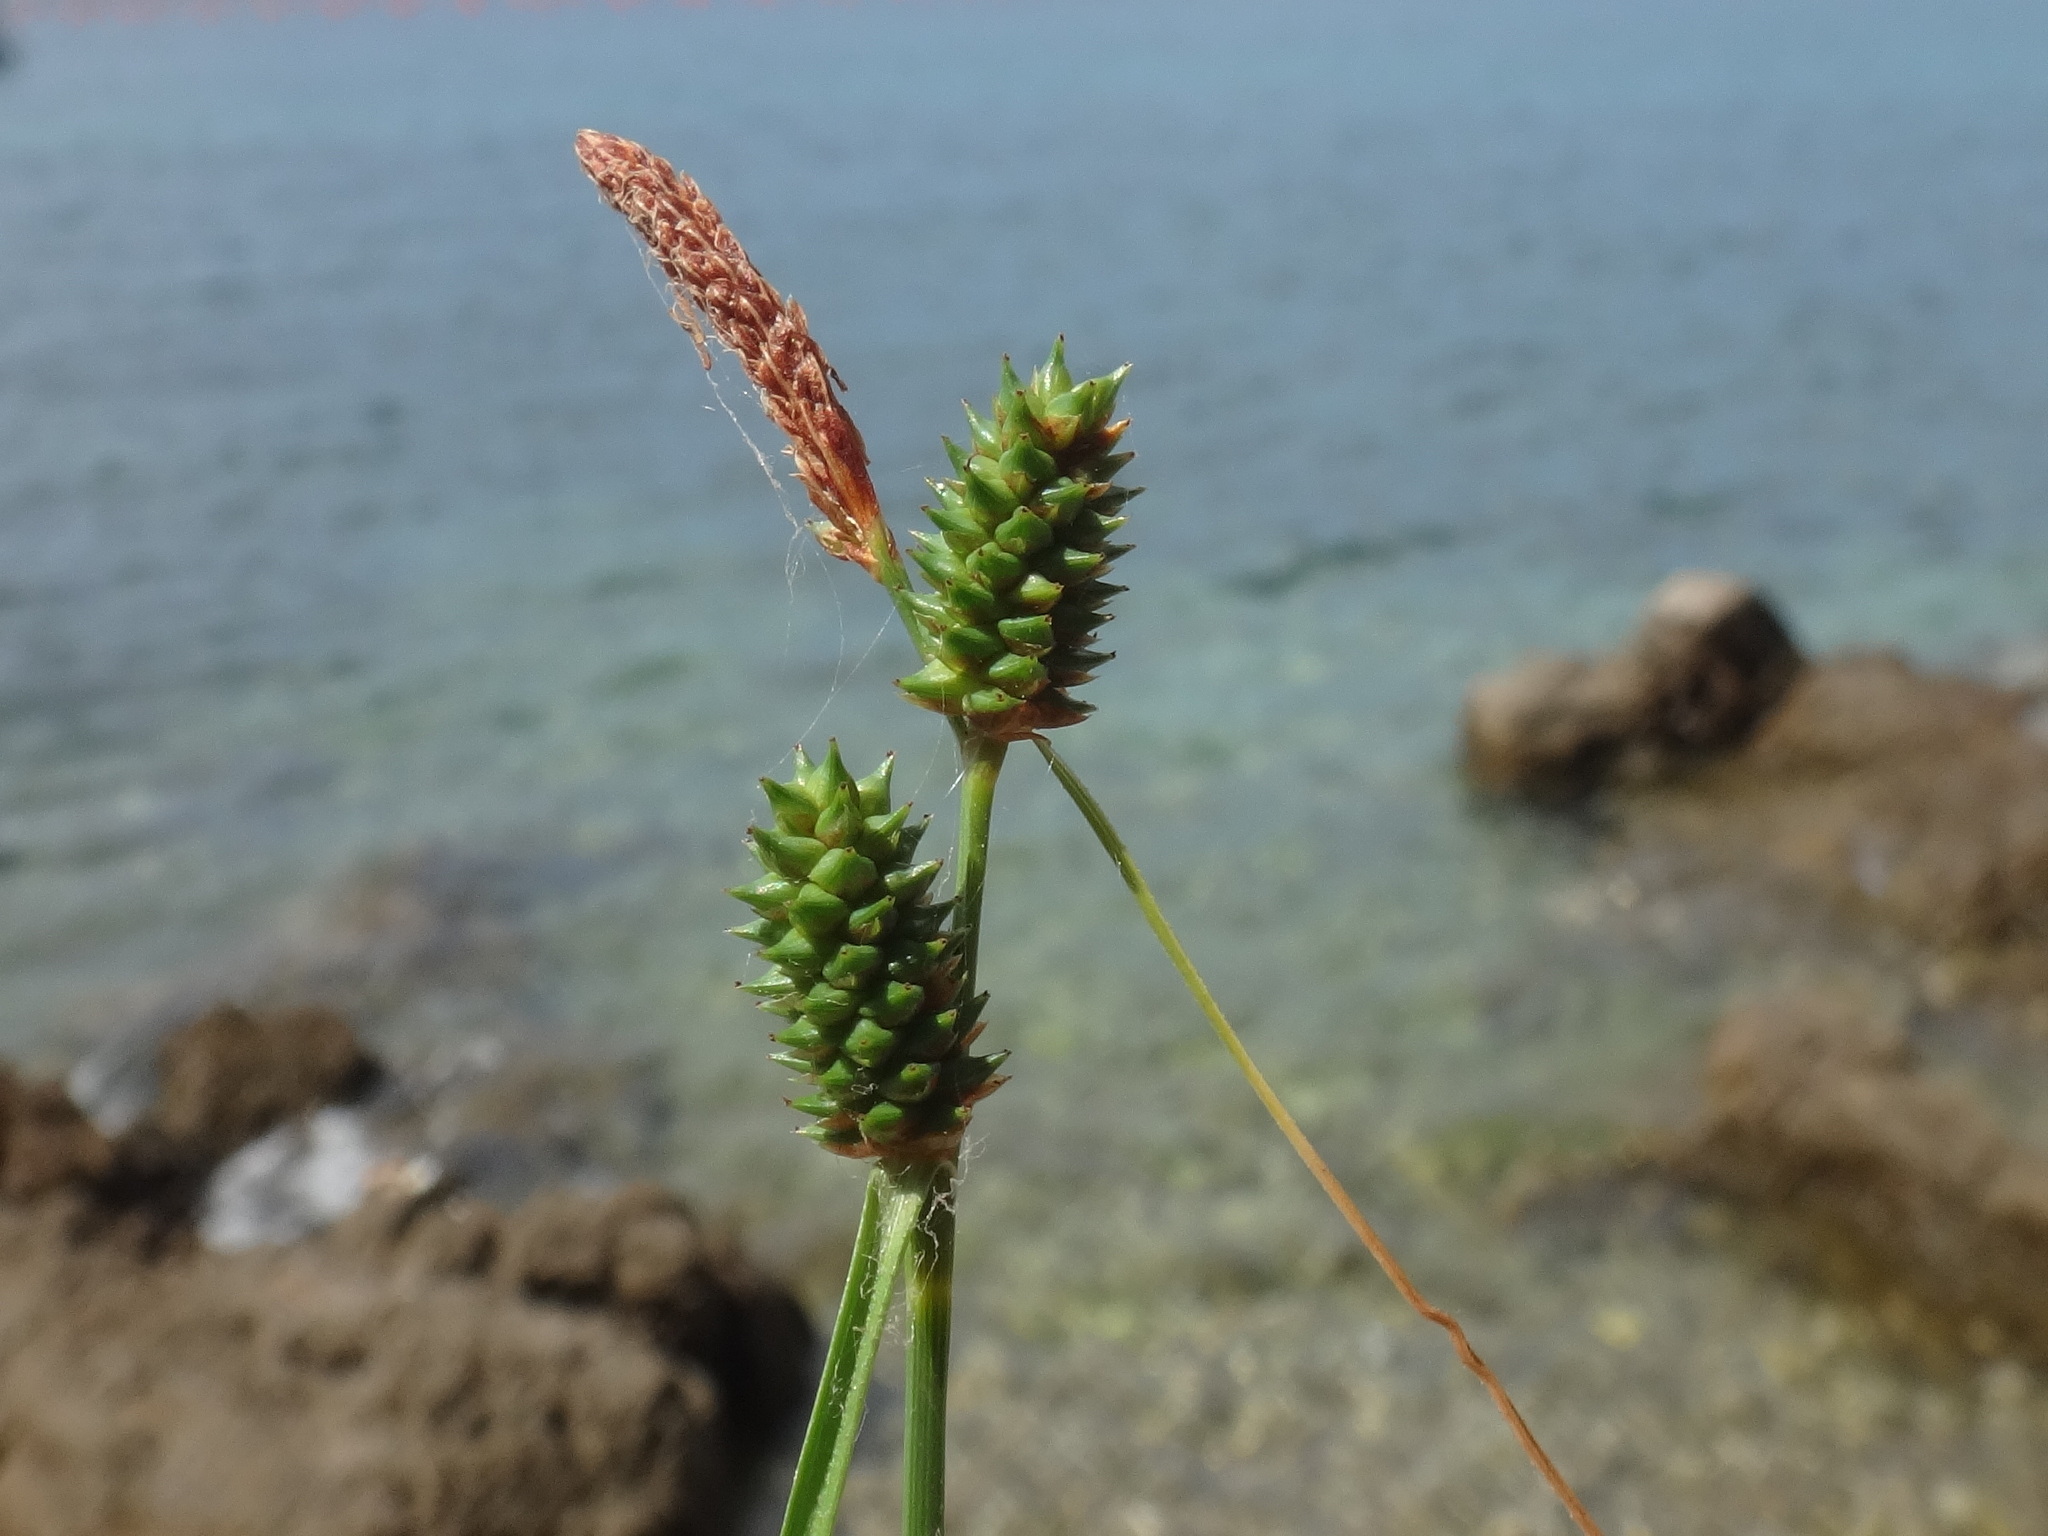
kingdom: Plantae
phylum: Tracheophyta
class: Liliopsida
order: Poales
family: Cyperaceae
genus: Carex
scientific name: Carex extensa
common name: Long-bracted sedge
